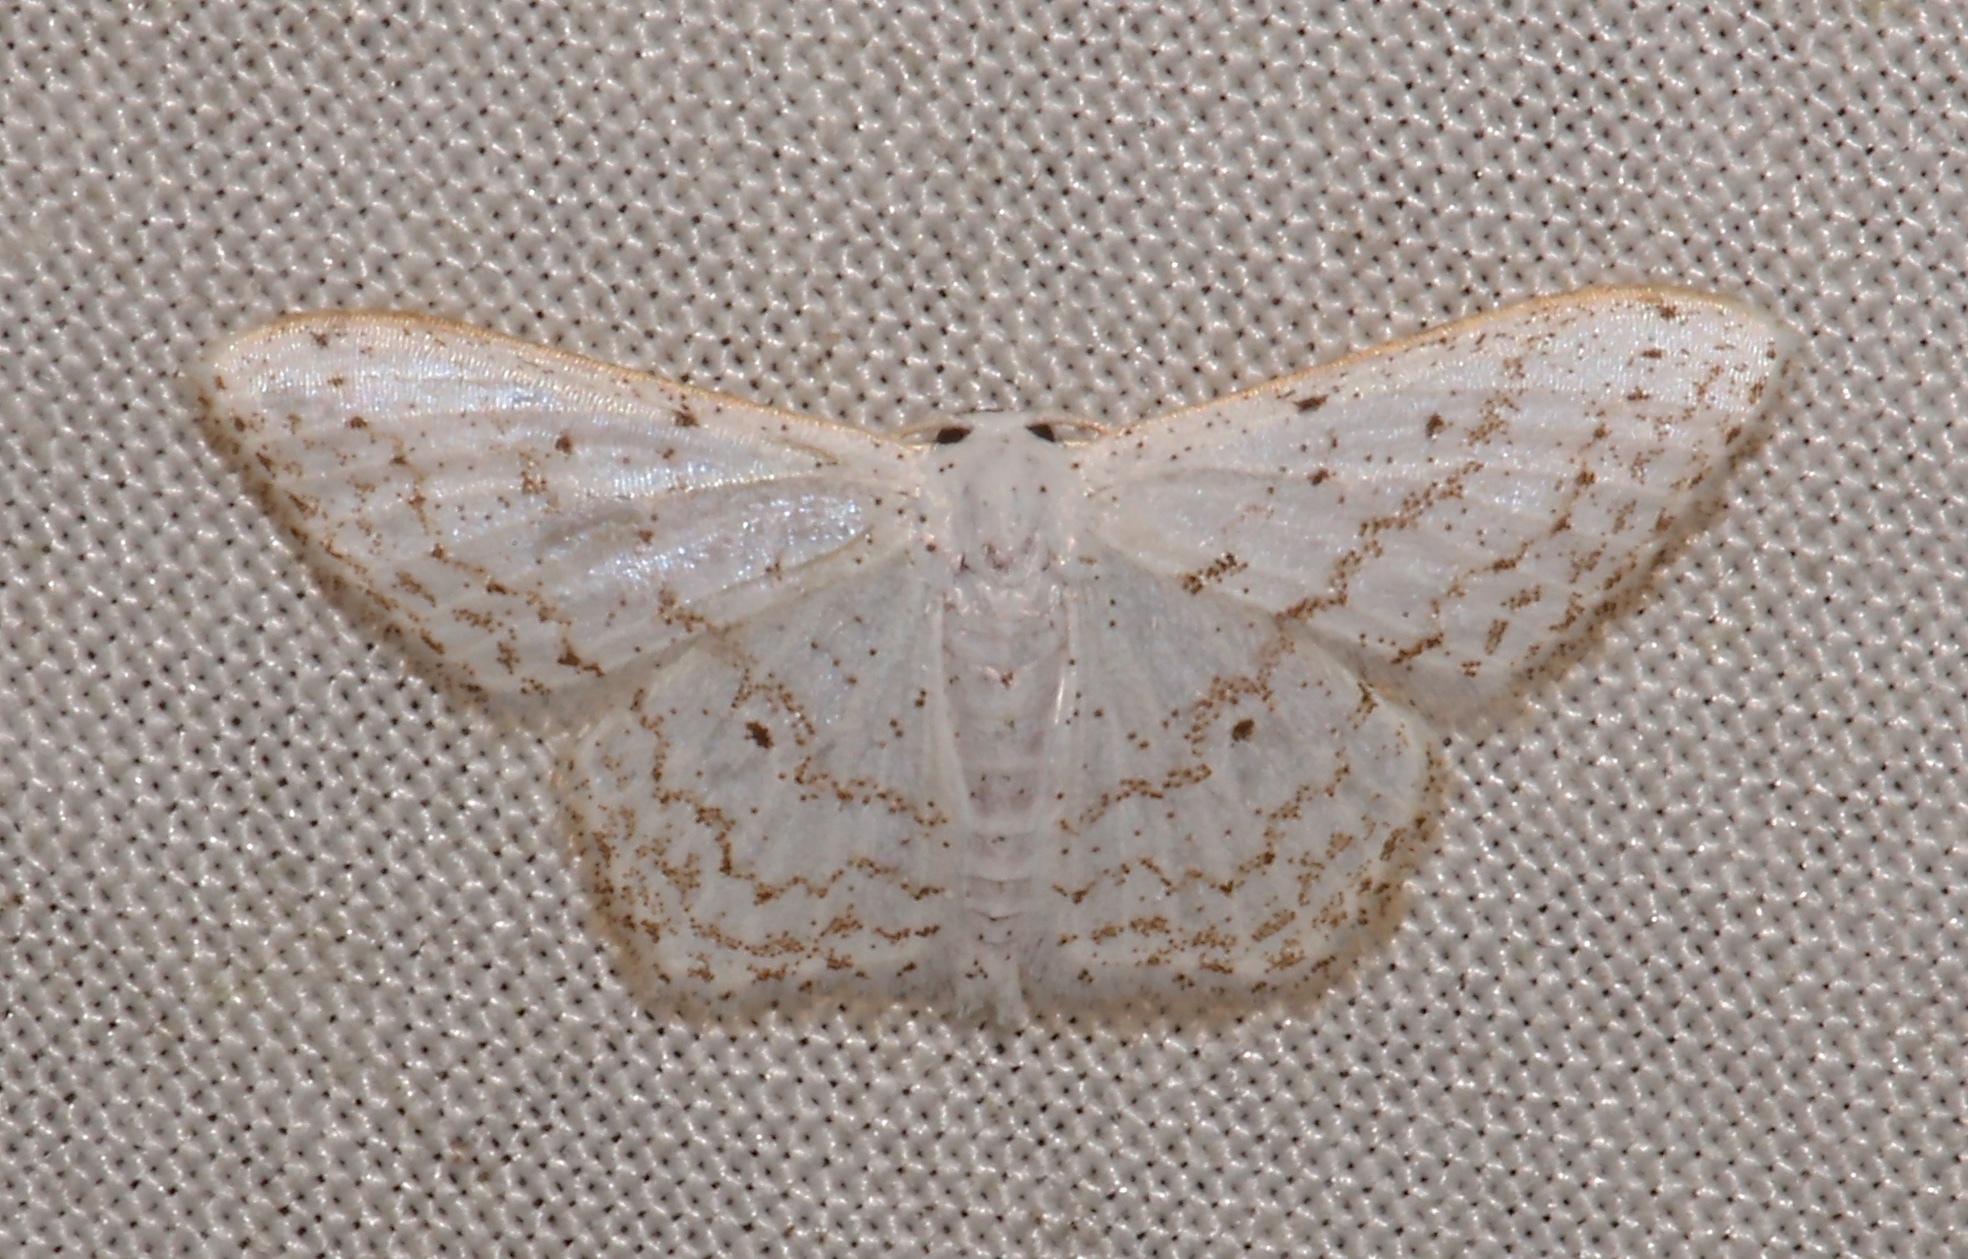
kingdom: Animalia
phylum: Arthropoda
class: Insecta
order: Lepidoptera
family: Geometridae
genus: Idaea
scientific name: Idaea tacturata
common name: Dot-lined wave
